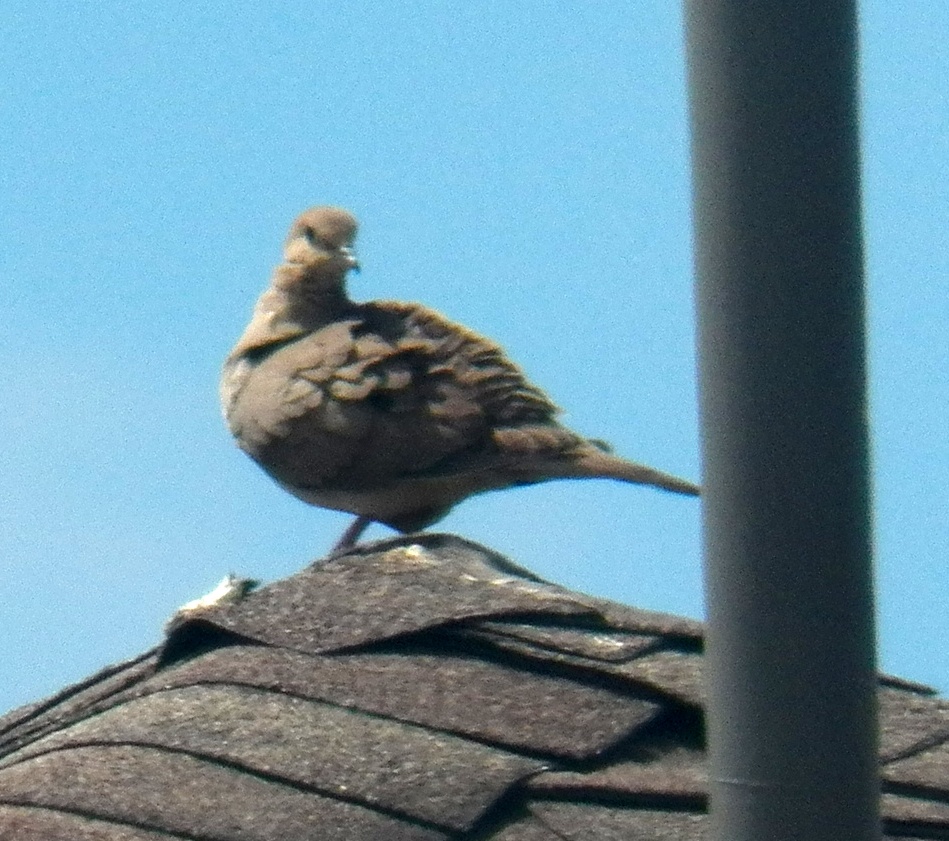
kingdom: Animalia
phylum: Chordata
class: Aves
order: Columbiformes
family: Columbidae
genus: Zenaida
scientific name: Zenaida macroura
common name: Mourning dove
